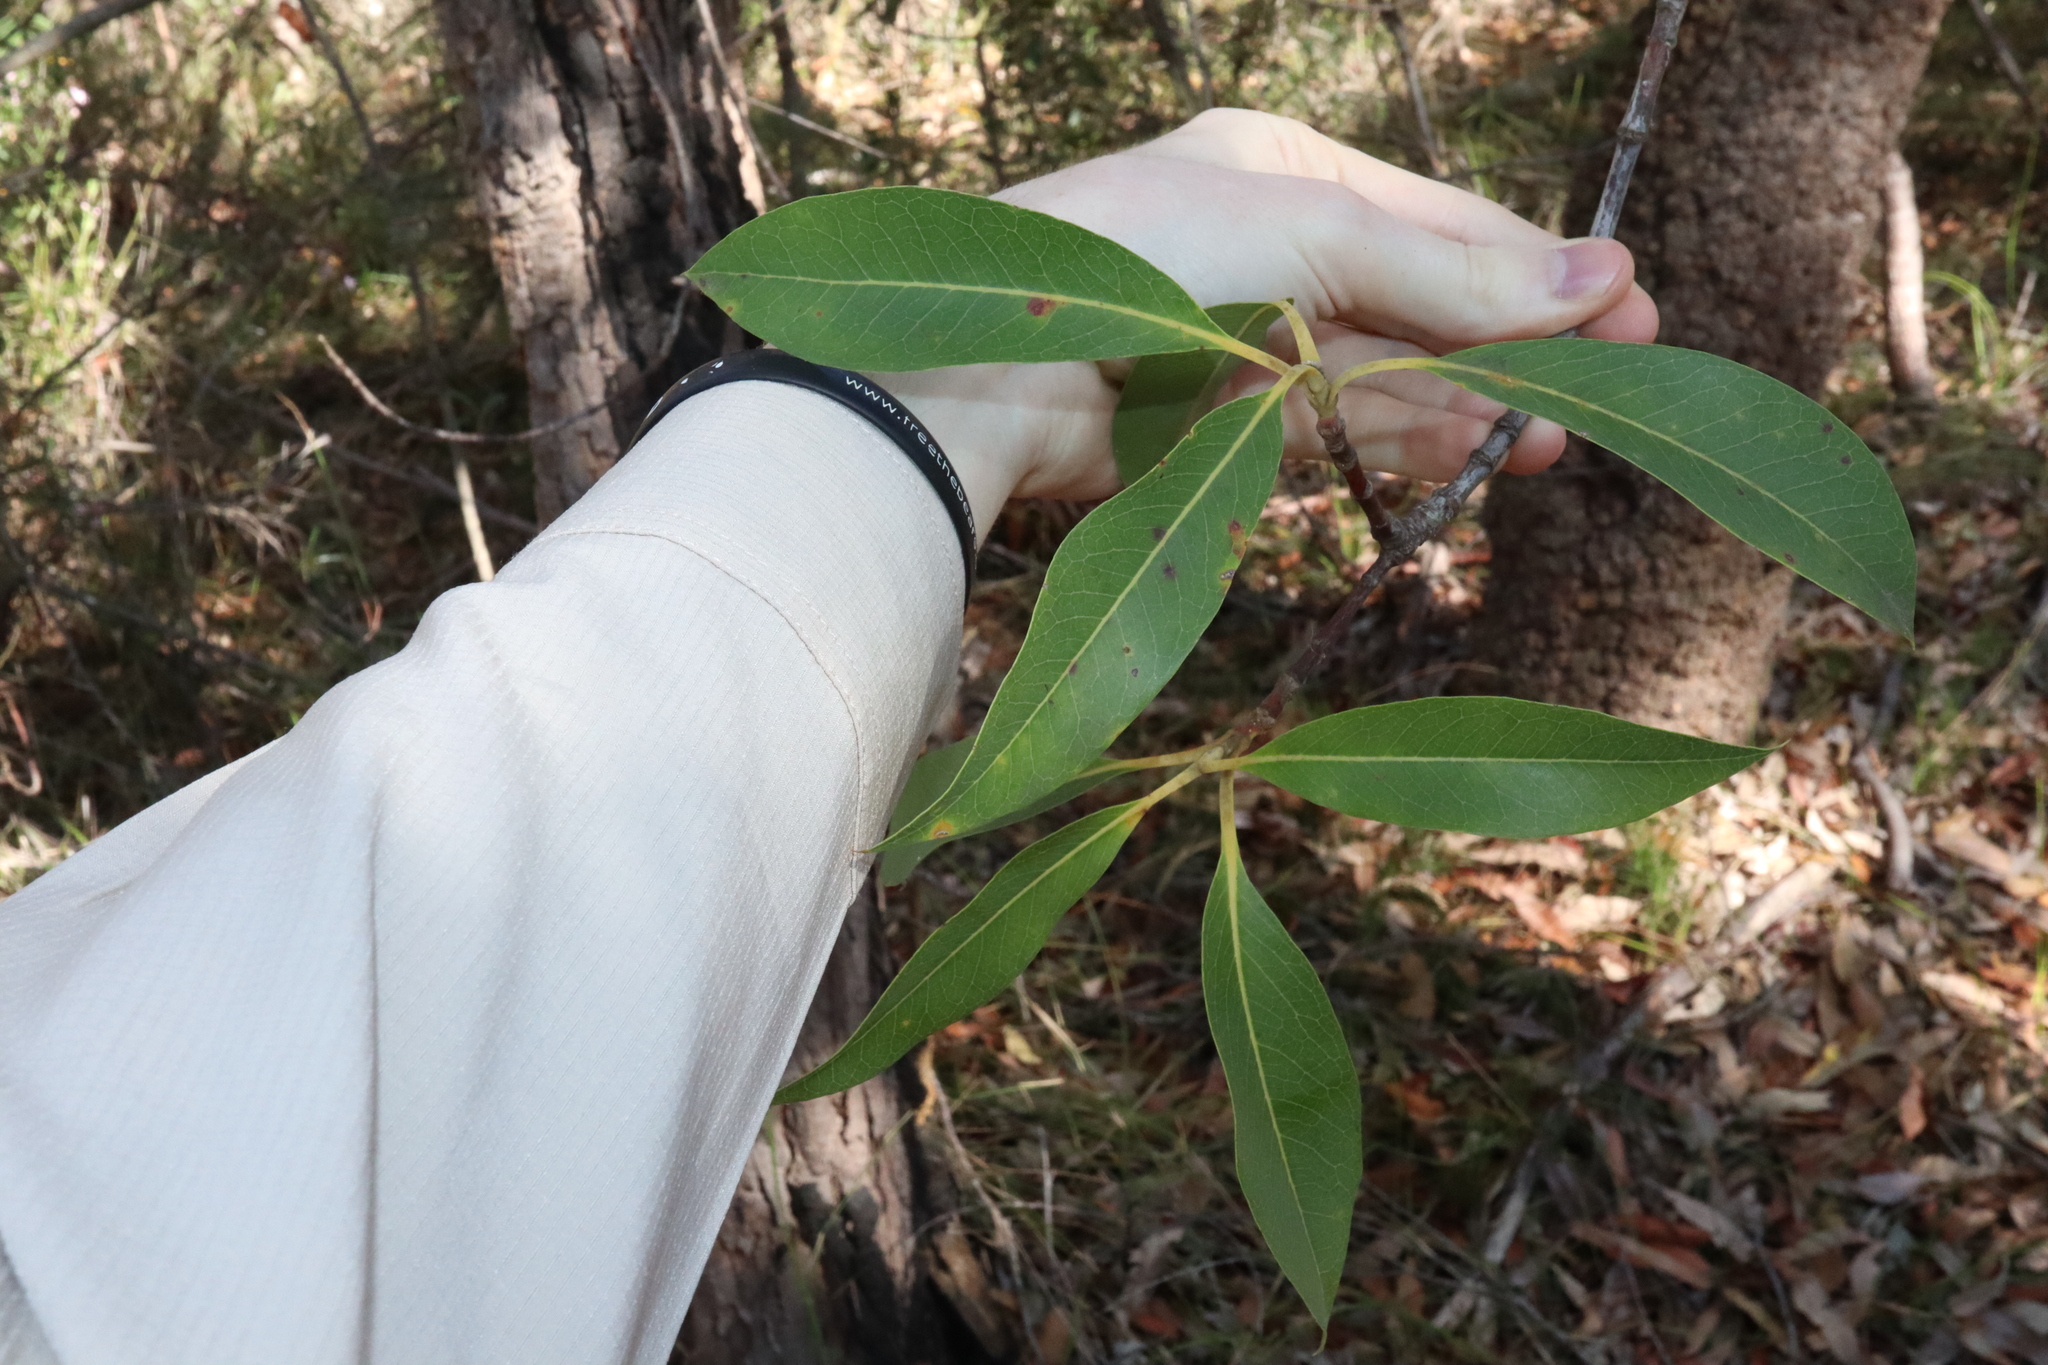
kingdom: Plantae
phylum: Tracheophyta
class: Magnoliopsida
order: Proteales
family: Proteaceae
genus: Xylomelum
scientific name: Xylomelum pyriforme
